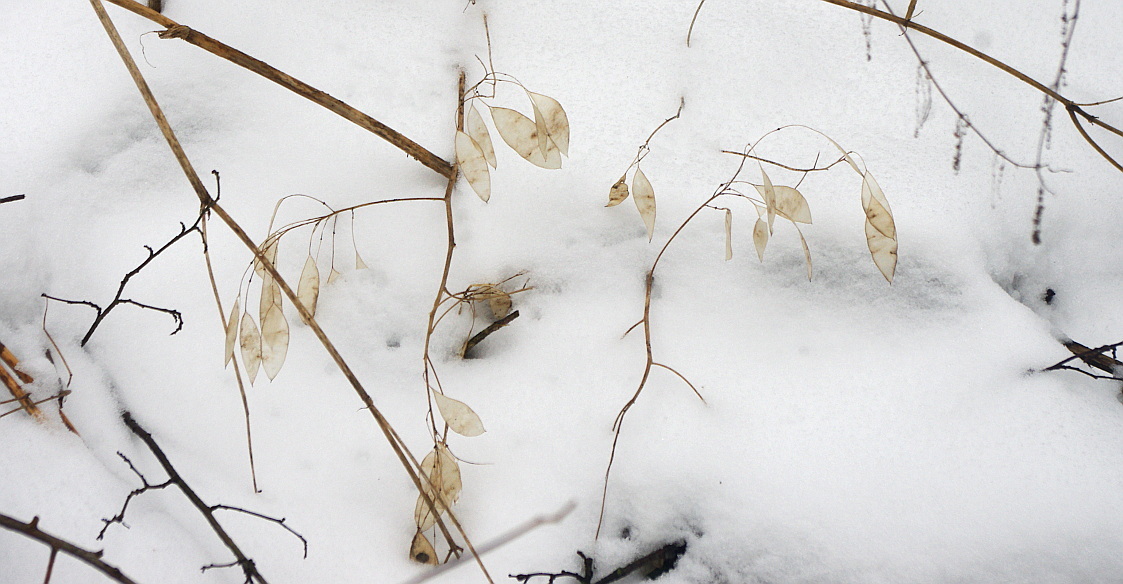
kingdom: Plantae
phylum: Tracheophyta
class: Magnoliopsida
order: Brassicales
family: Brassicaceae
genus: Lunaria
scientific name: Lunaria rediviva
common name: Perennial honesty
